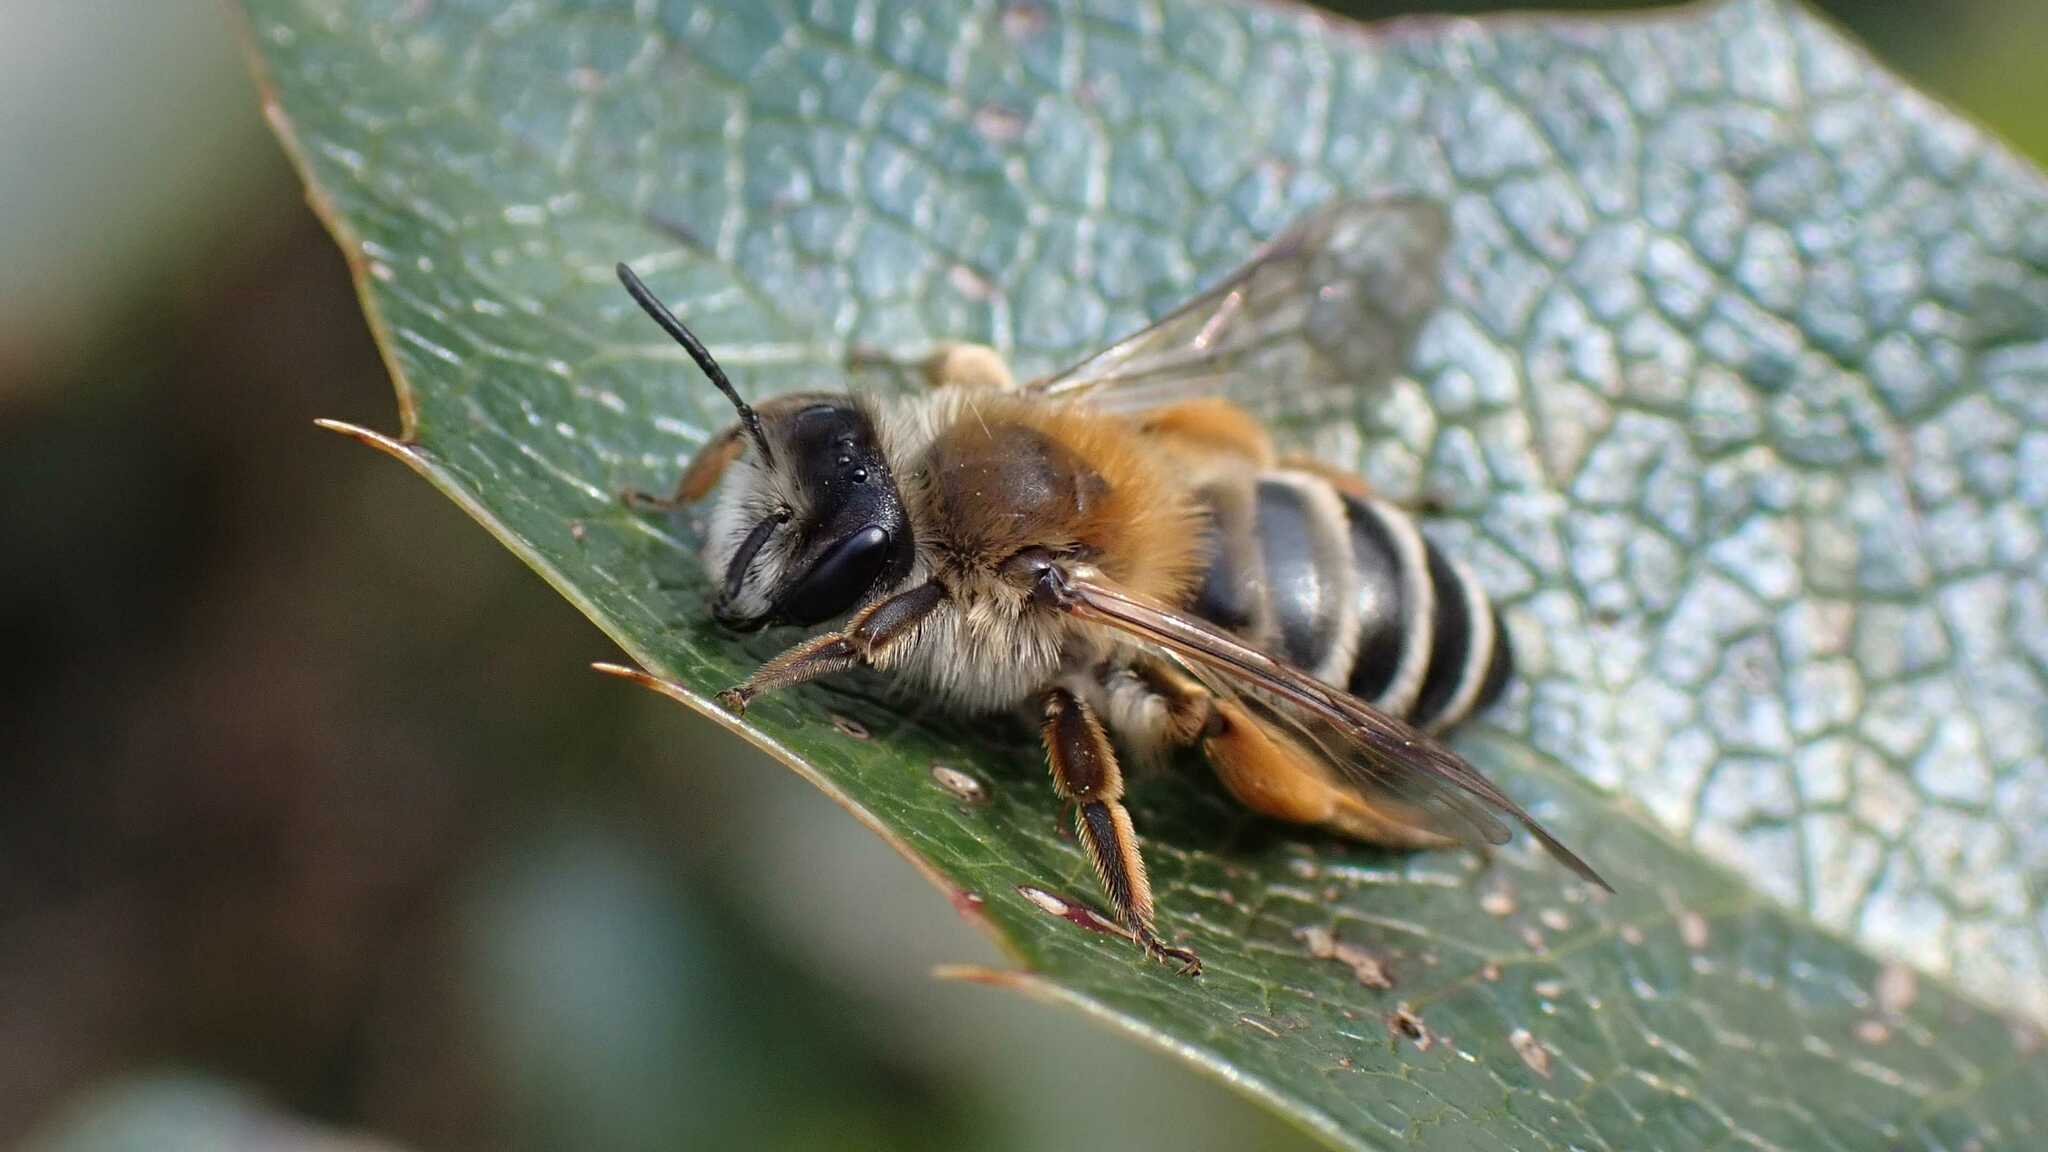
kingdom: Animalia
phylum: Arthropoda
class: Insecta
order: Hymenoptera
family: Andrenidae
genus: Andrena
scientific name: Andrena gravida
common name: White-bellied mining bee
